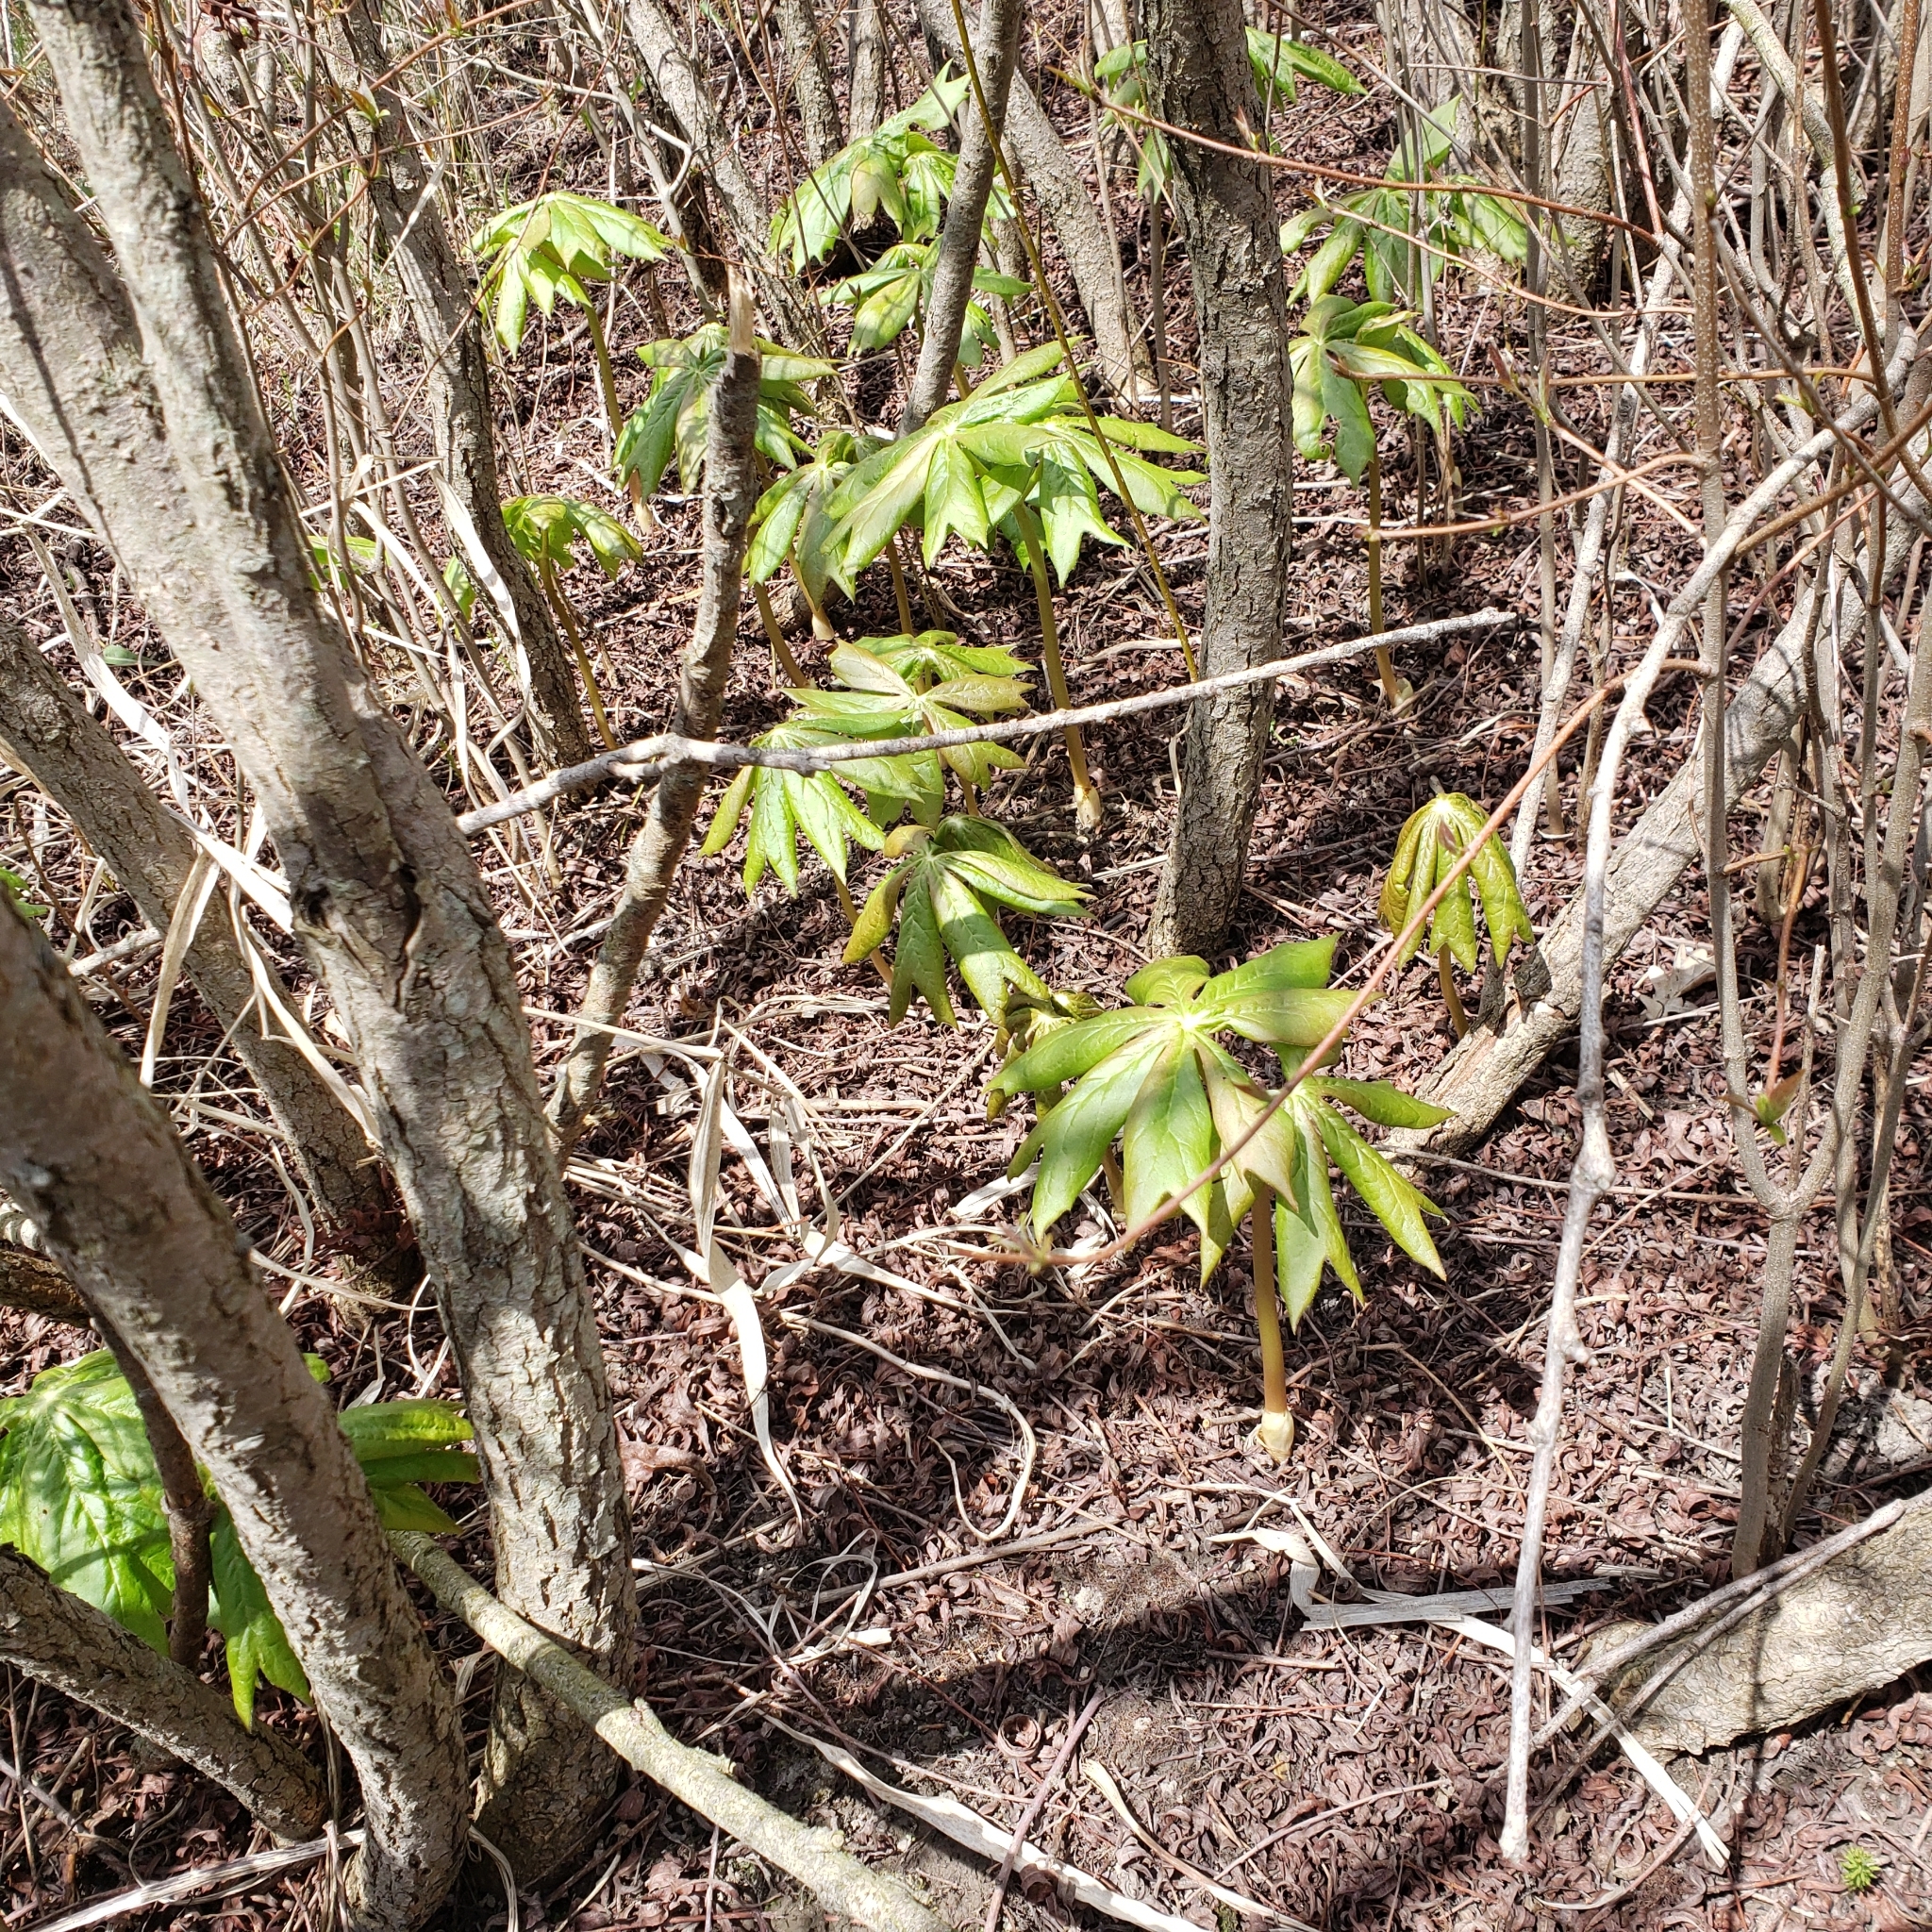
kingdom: Plantae
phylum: Tracheophyta
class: Magnoliopsida
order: Ranunculales
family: Berberidaceae
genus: Podophyllum
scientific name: Podophyllum peltatum
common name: Wild mandrake
